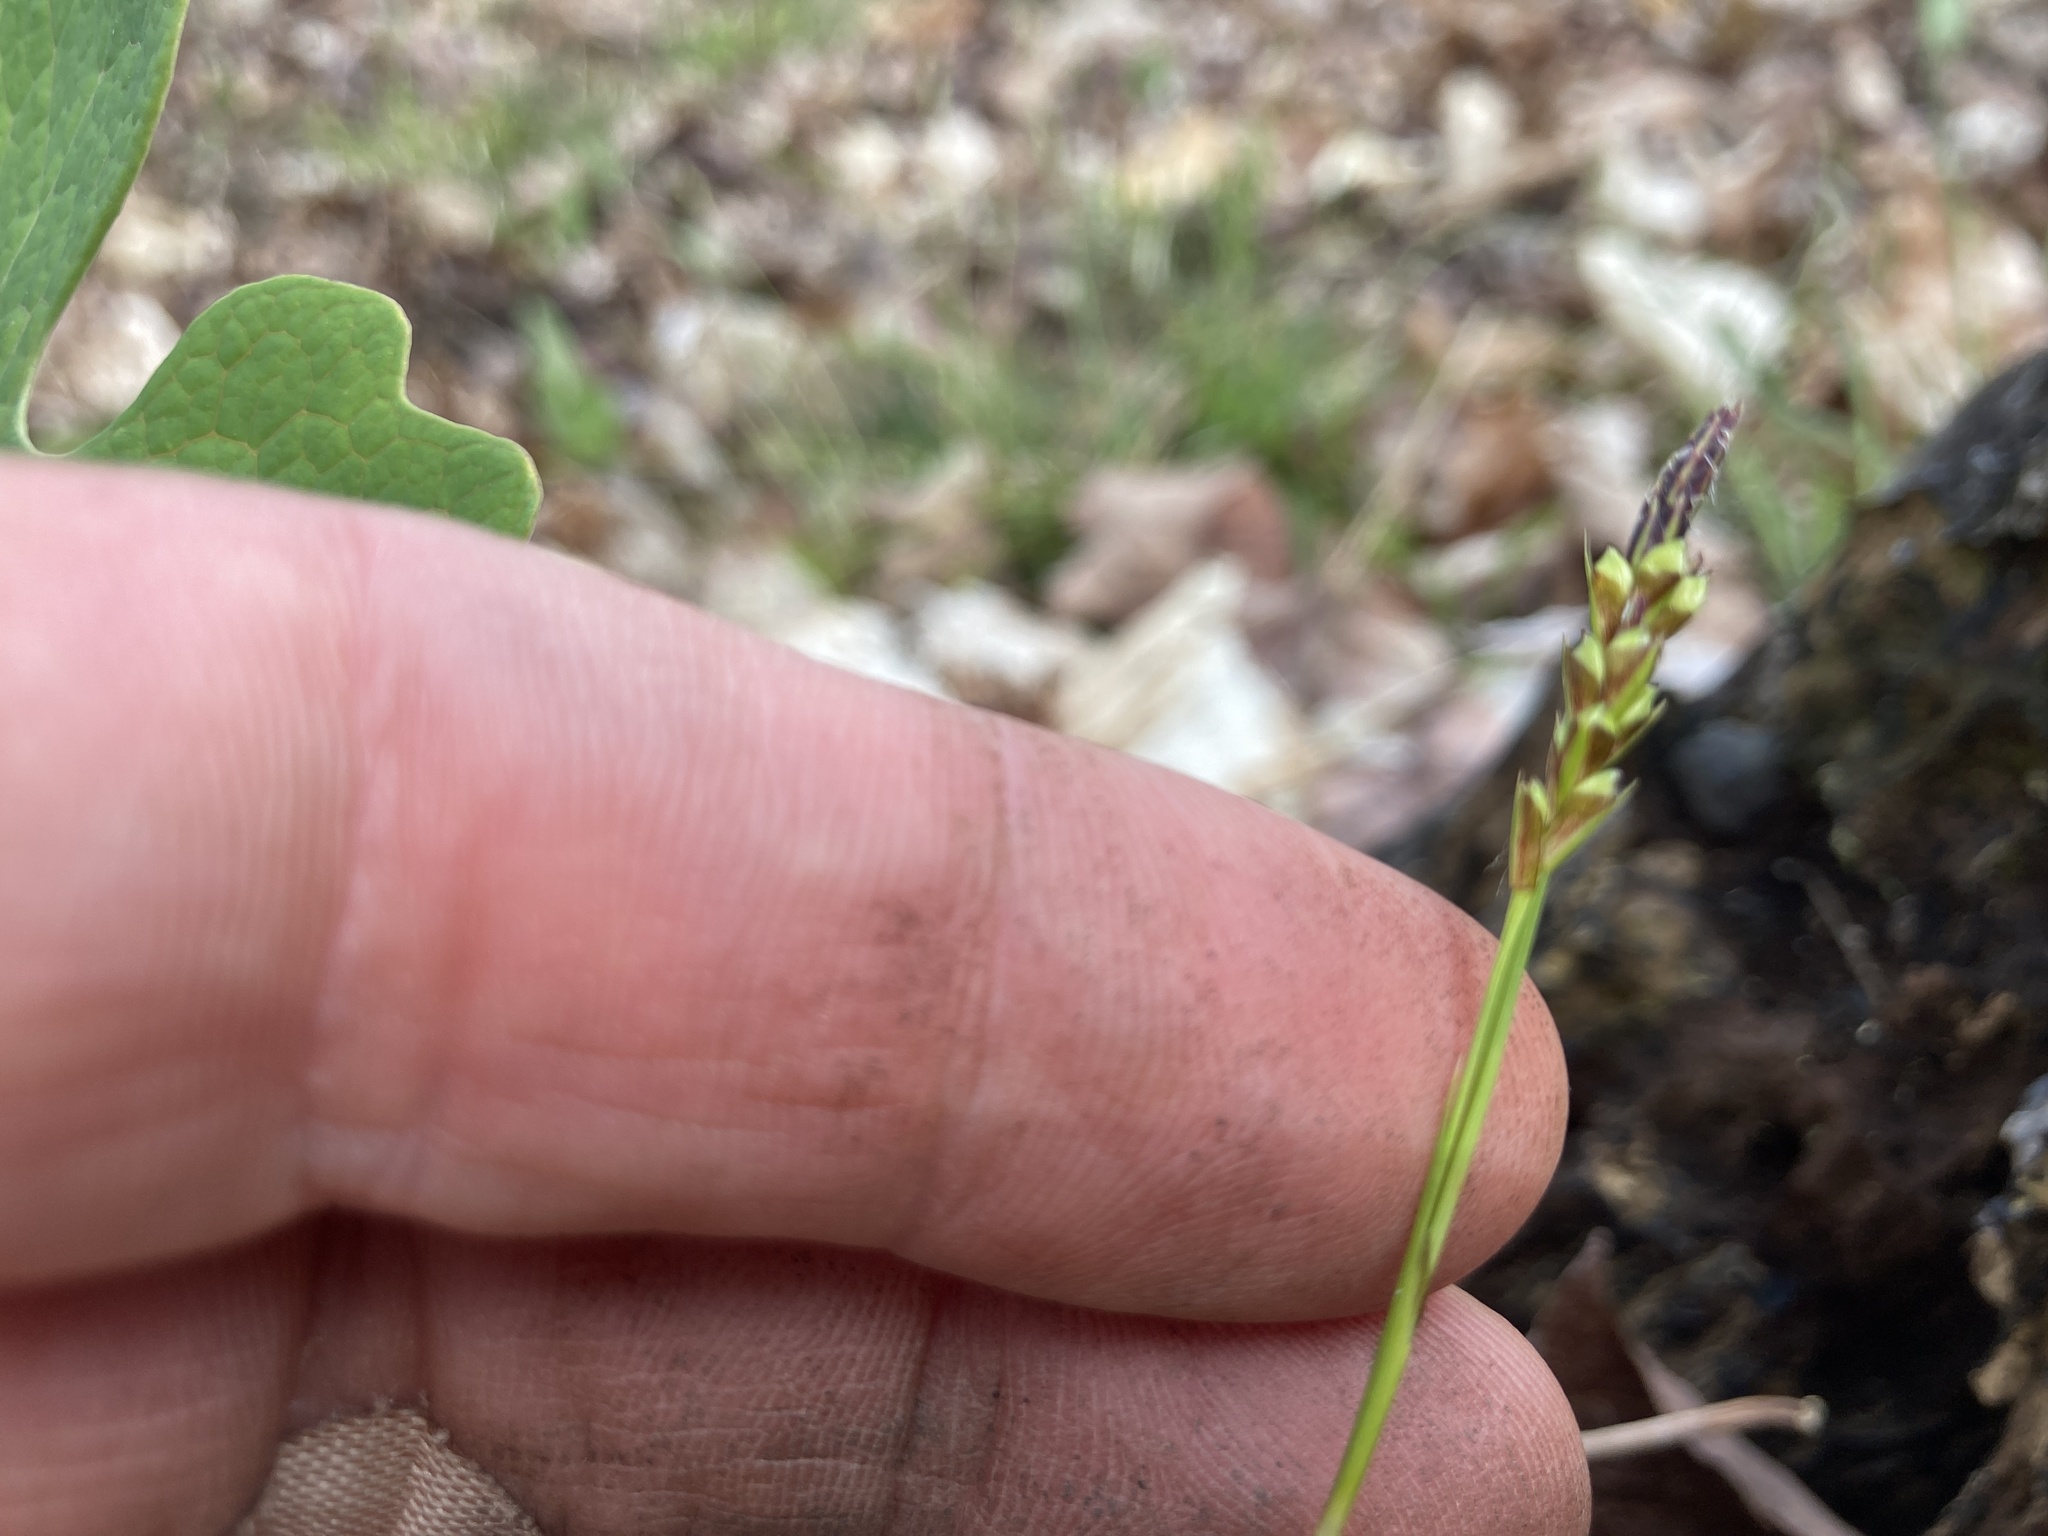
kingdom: Plantae
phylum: Tracheophyta
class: Liliopsida
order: Poales
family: Cyperaceae
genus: Carex
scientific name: Carex pedunculata
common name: Pedunculate sedge
